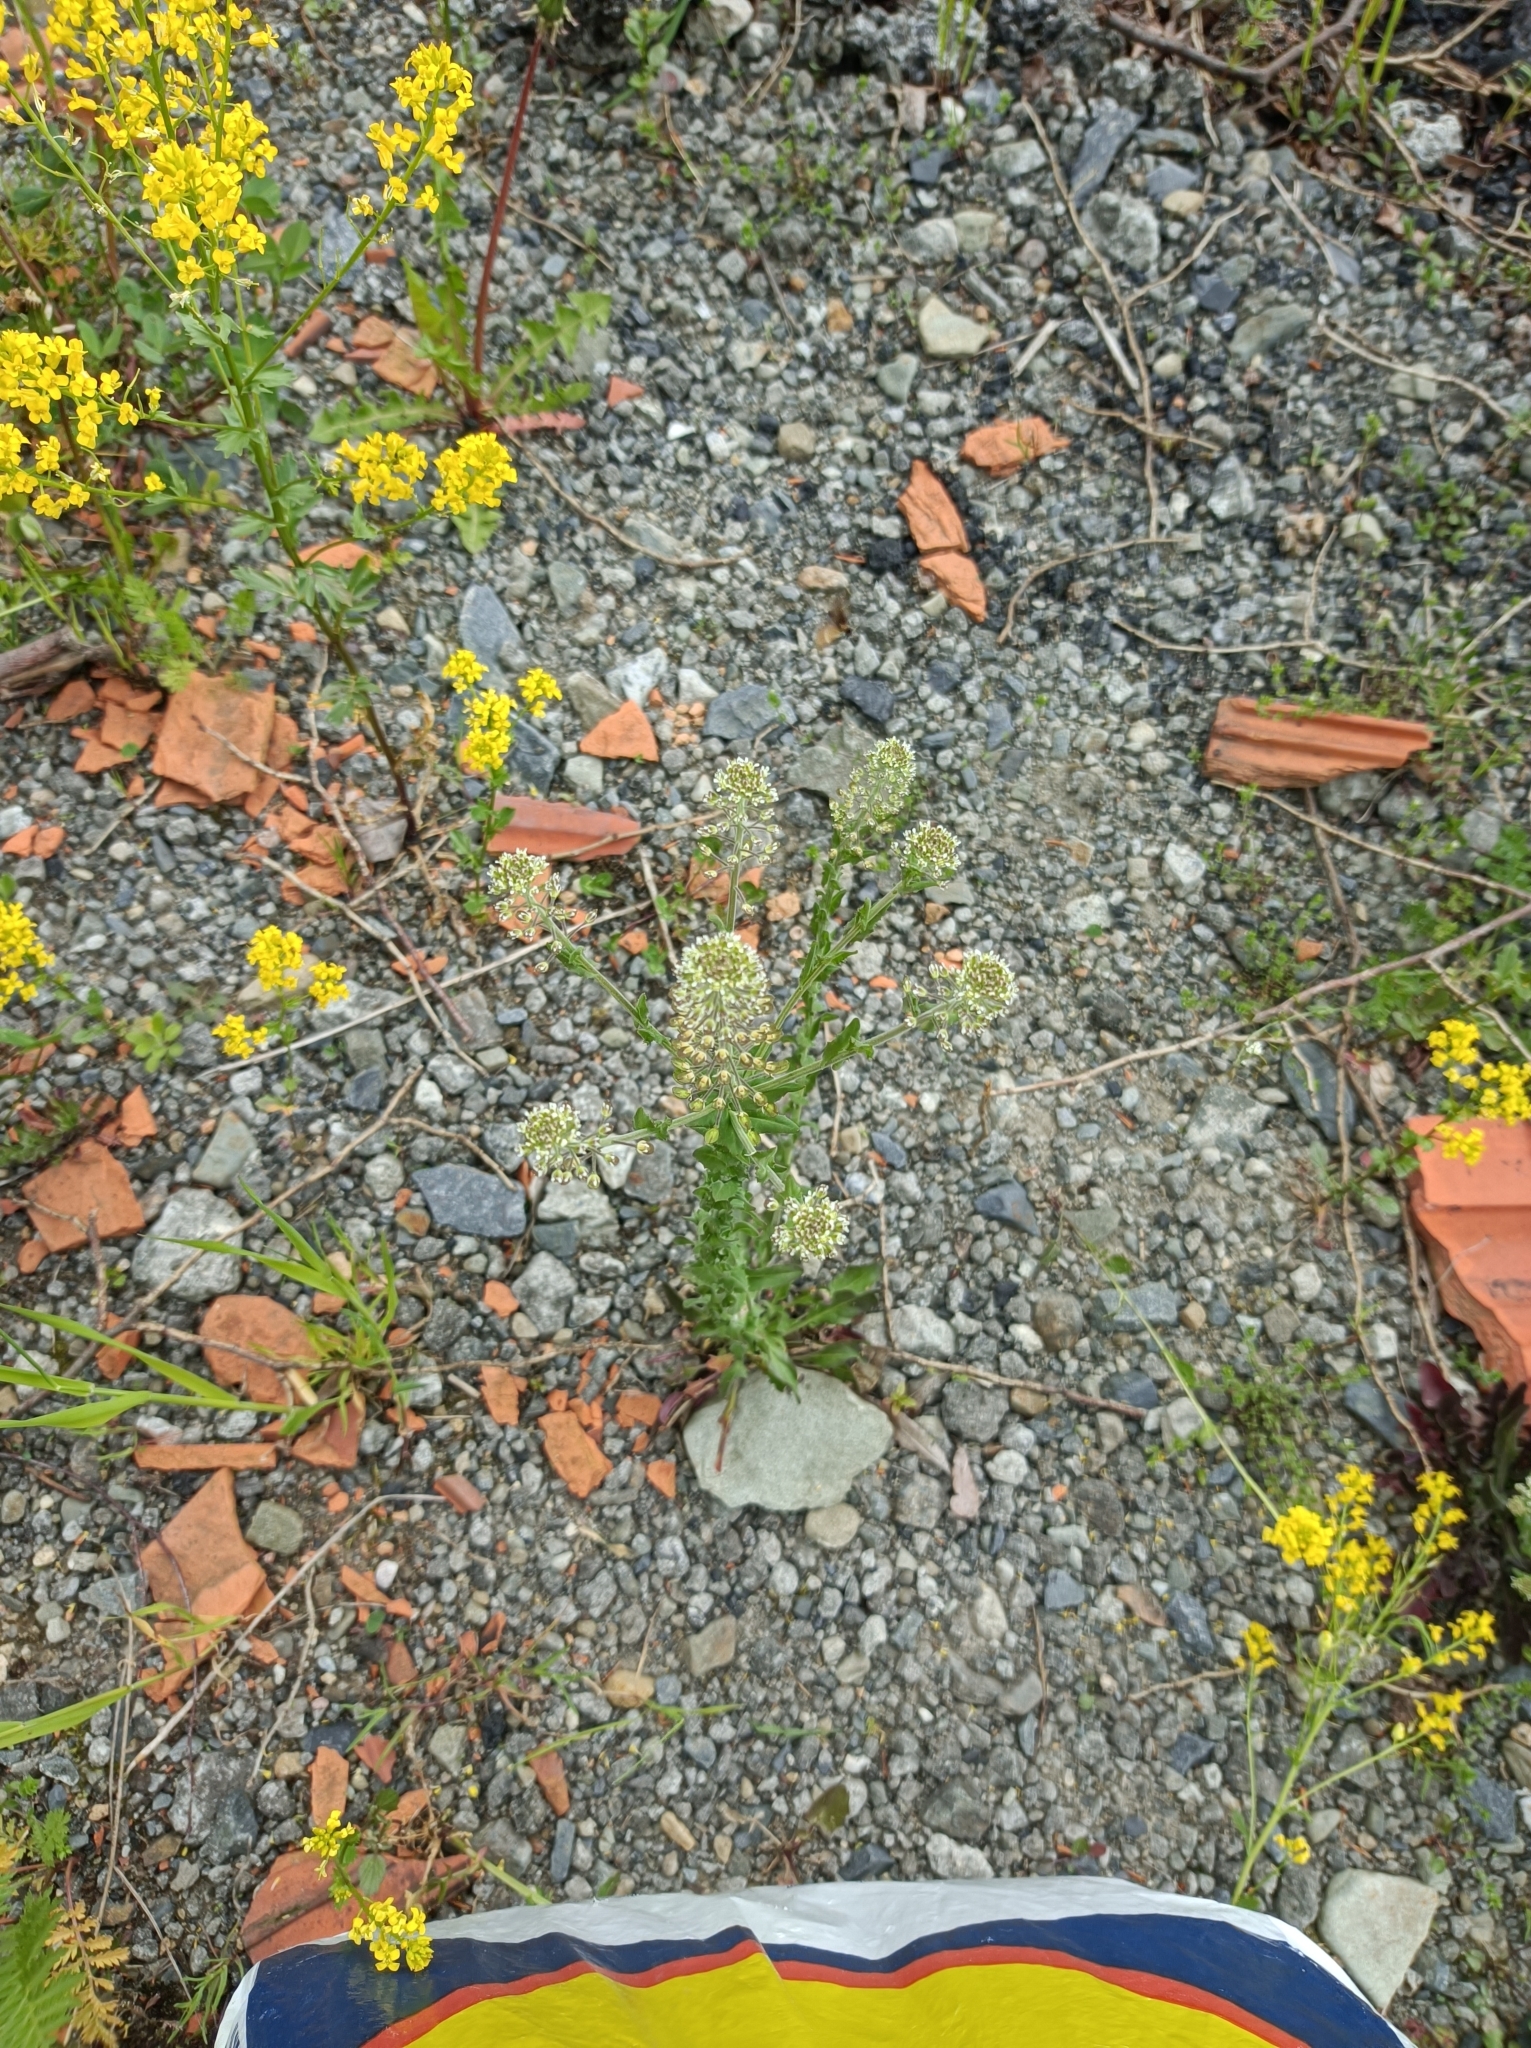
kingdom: Plantae
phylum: Tracheophyta
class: Magnoliopsida
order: Brassicales
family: Brassicaceae
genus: Lepidium
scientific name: Lepidium campestre
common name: Field pepperwort
